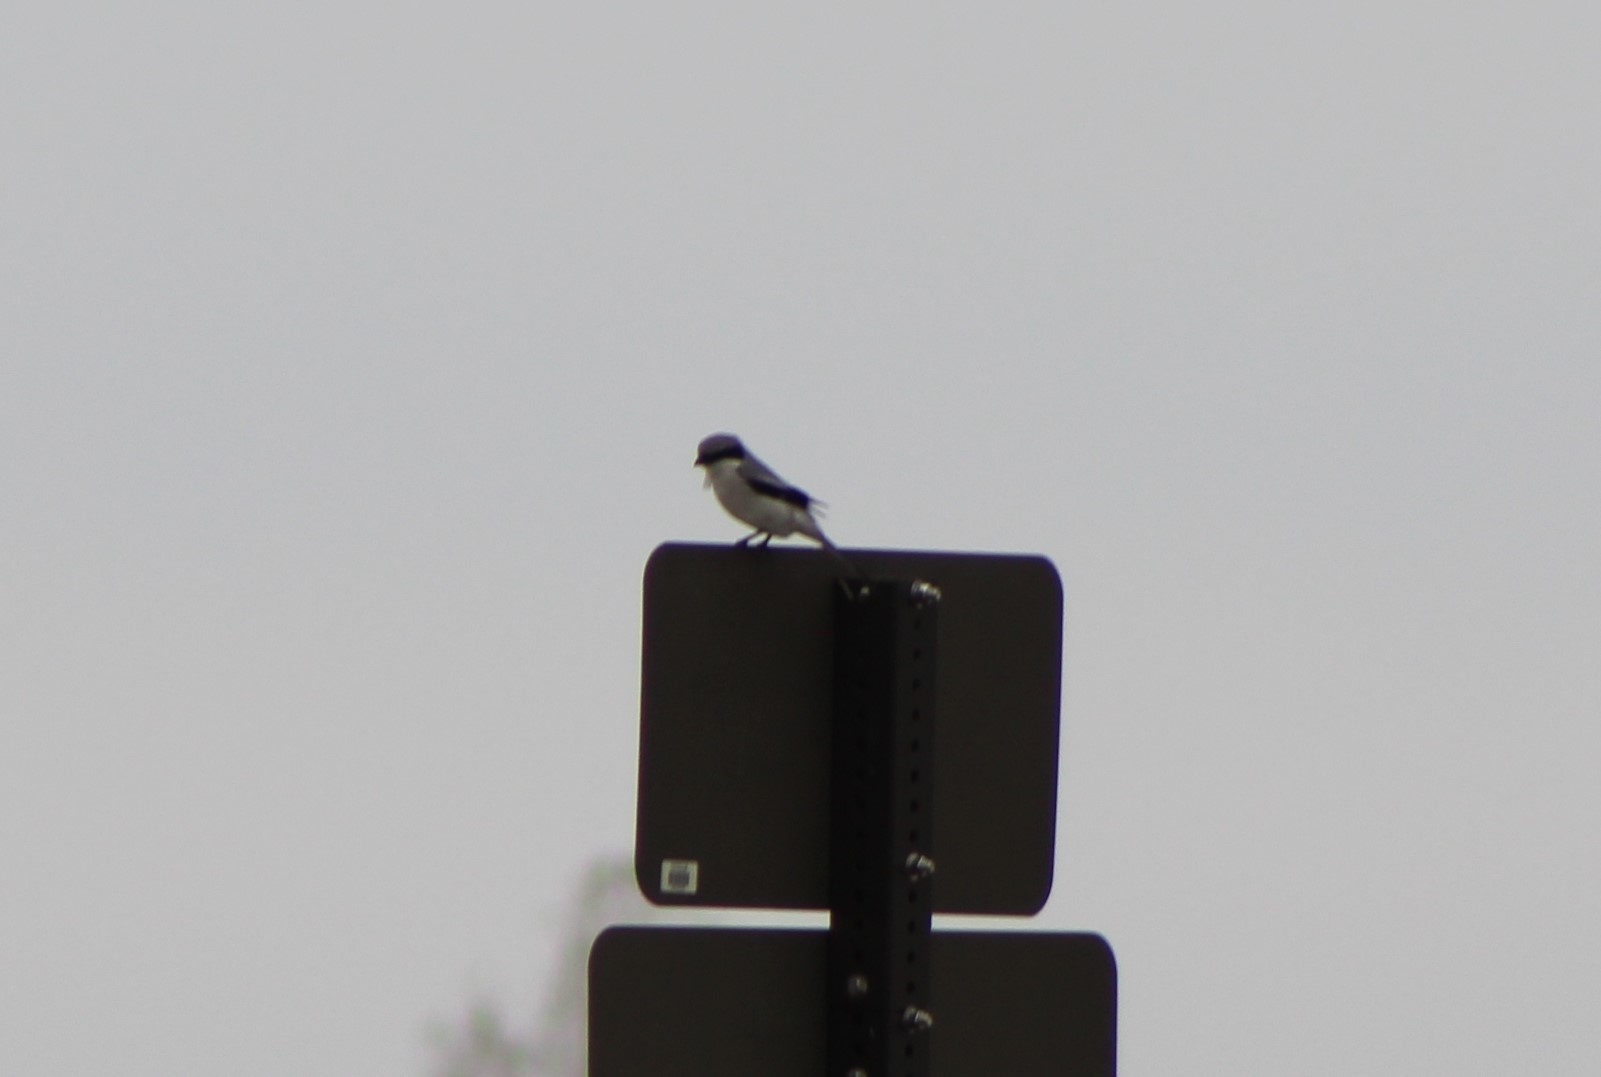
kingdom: Animalia
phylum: Chordata
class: Aves
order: Passeriformes
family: Laniidae
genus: Lanius
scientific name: Lanius ludovicianus
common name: Loggerhead shrike
